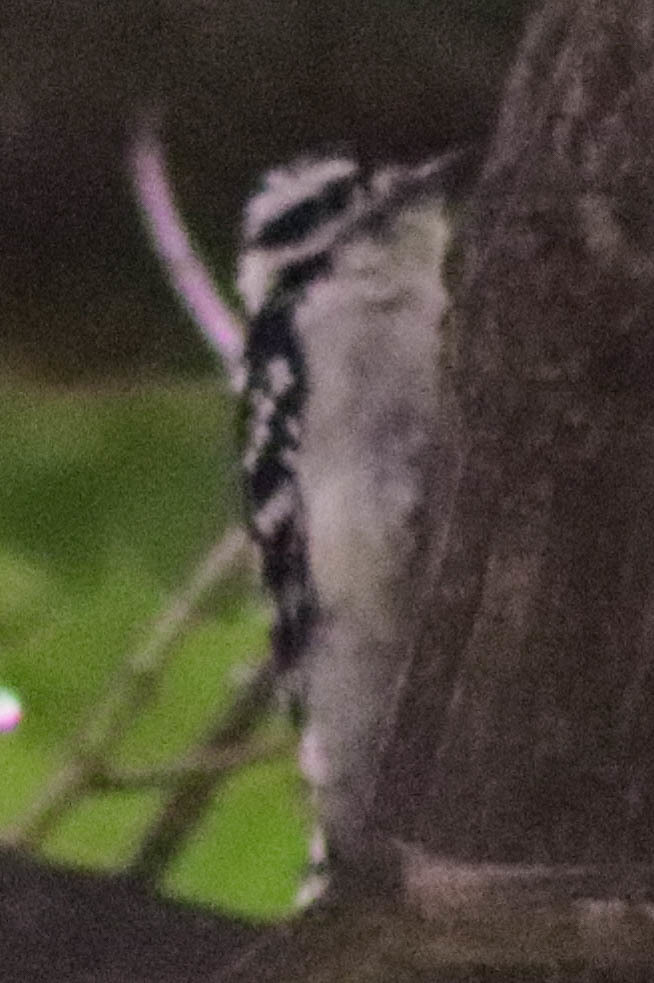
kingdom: Animalia
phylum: Chordata
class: Aves
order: Piciformes
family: Picidae
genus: Dryobates
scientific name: Dryobates pubescens
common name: Downy woodpecker
